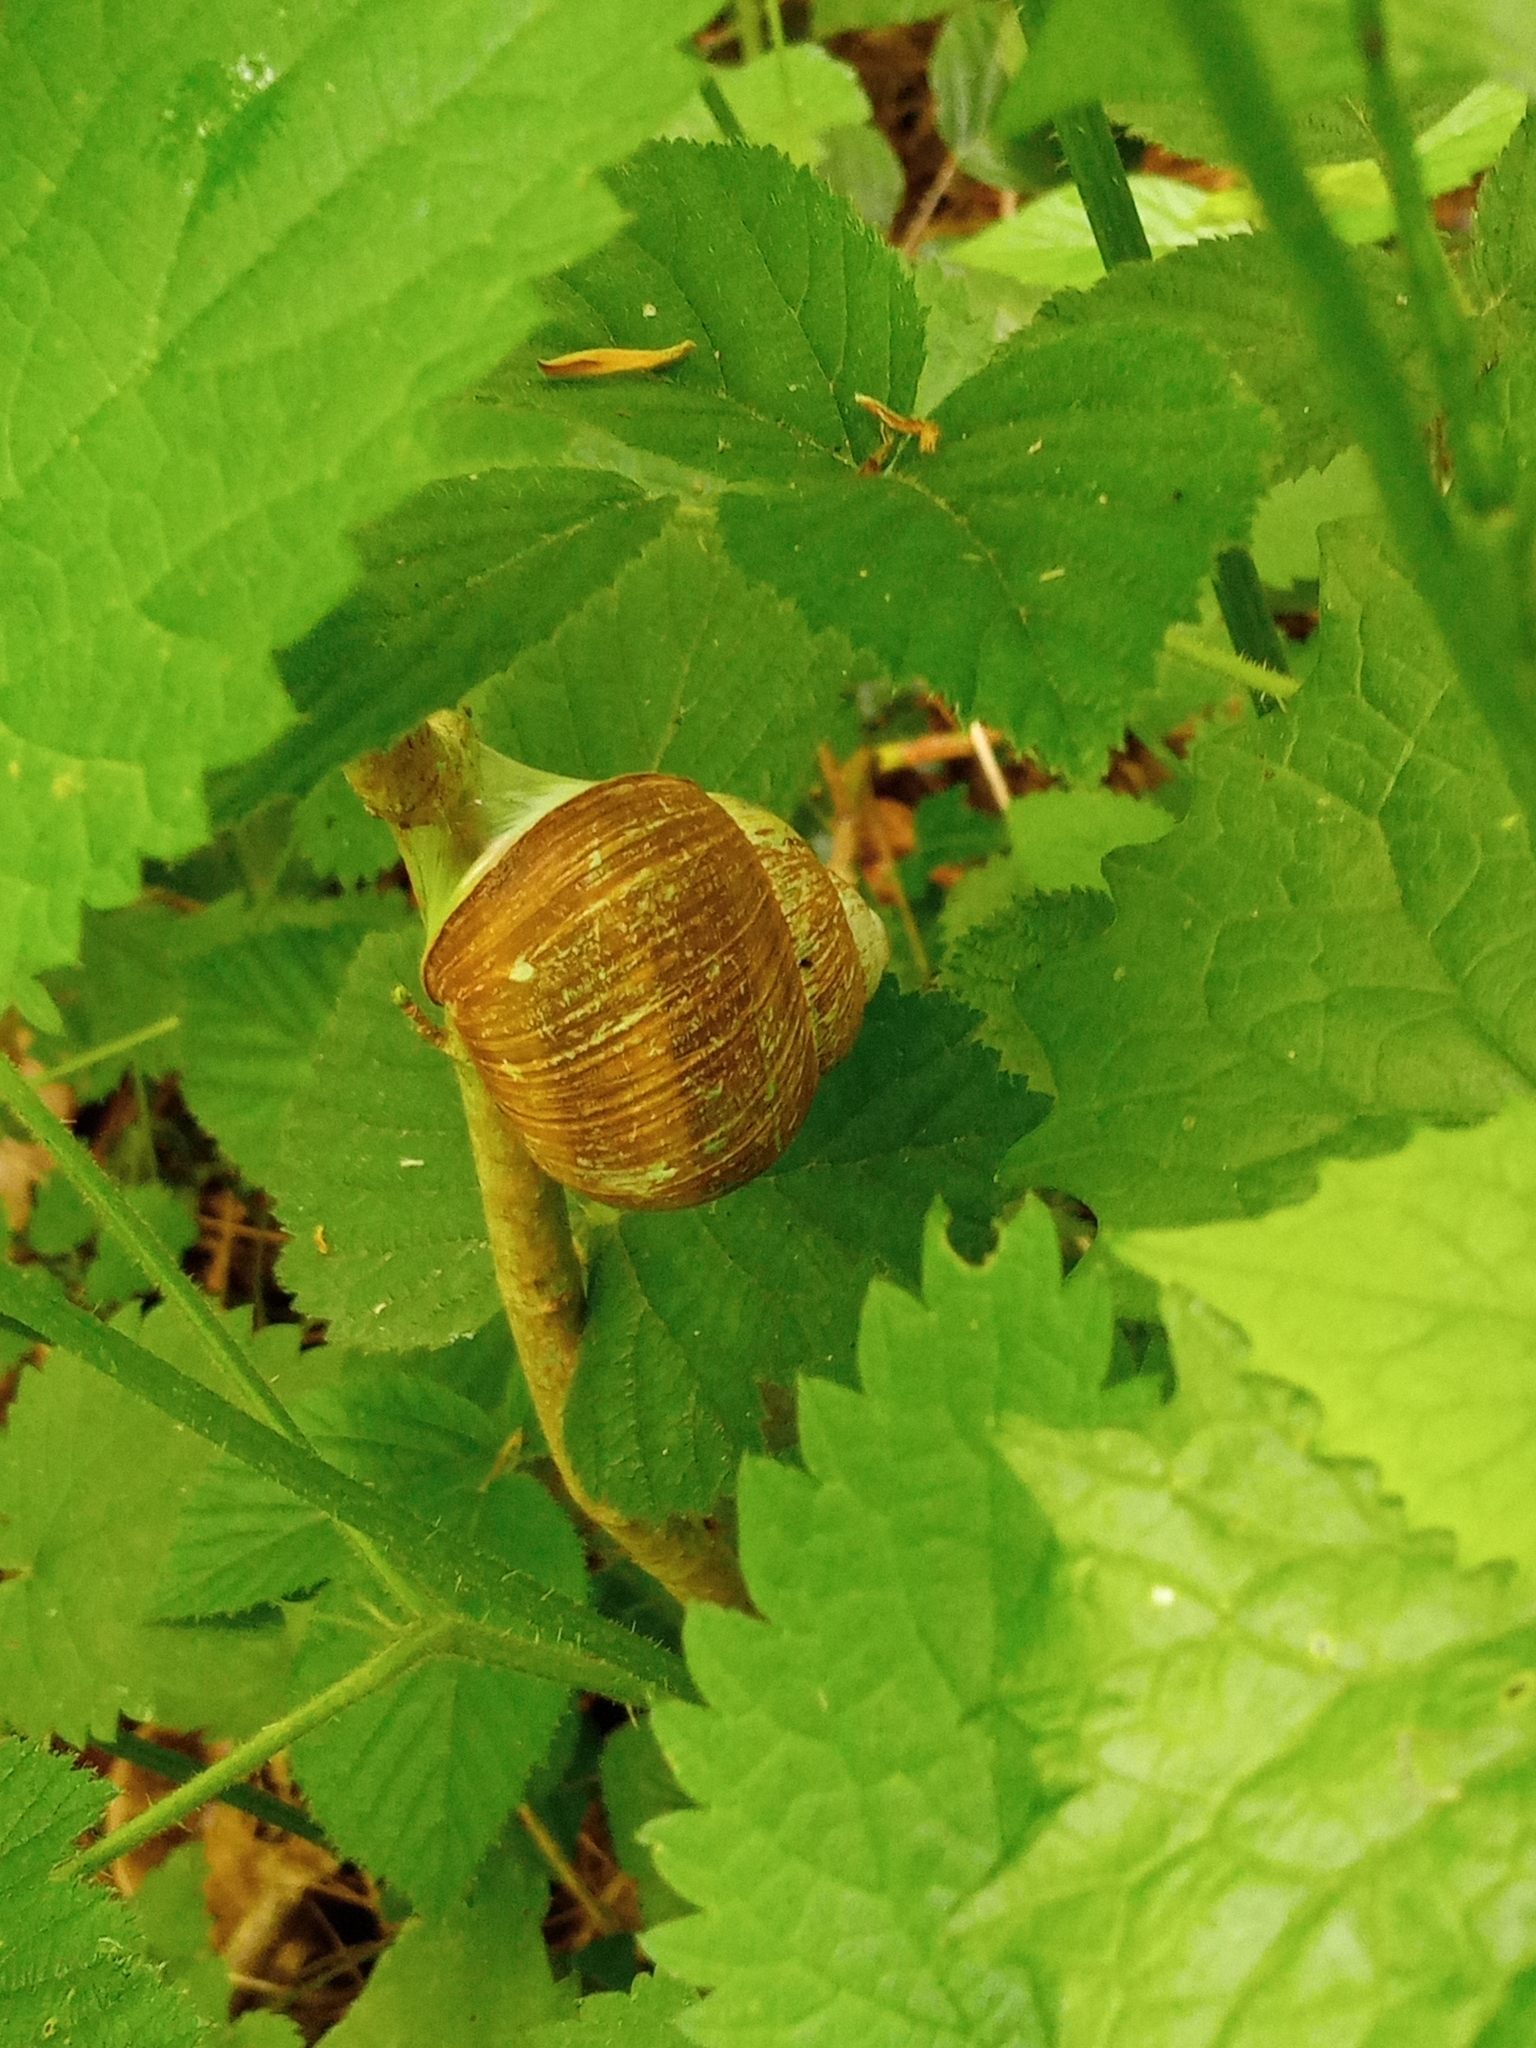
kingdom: Animalia
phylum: Mollusca
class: Gastropoda
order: Stylommatophora
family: Helicidae
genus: Helix
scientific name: Helix pomatia
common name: Roman snail
